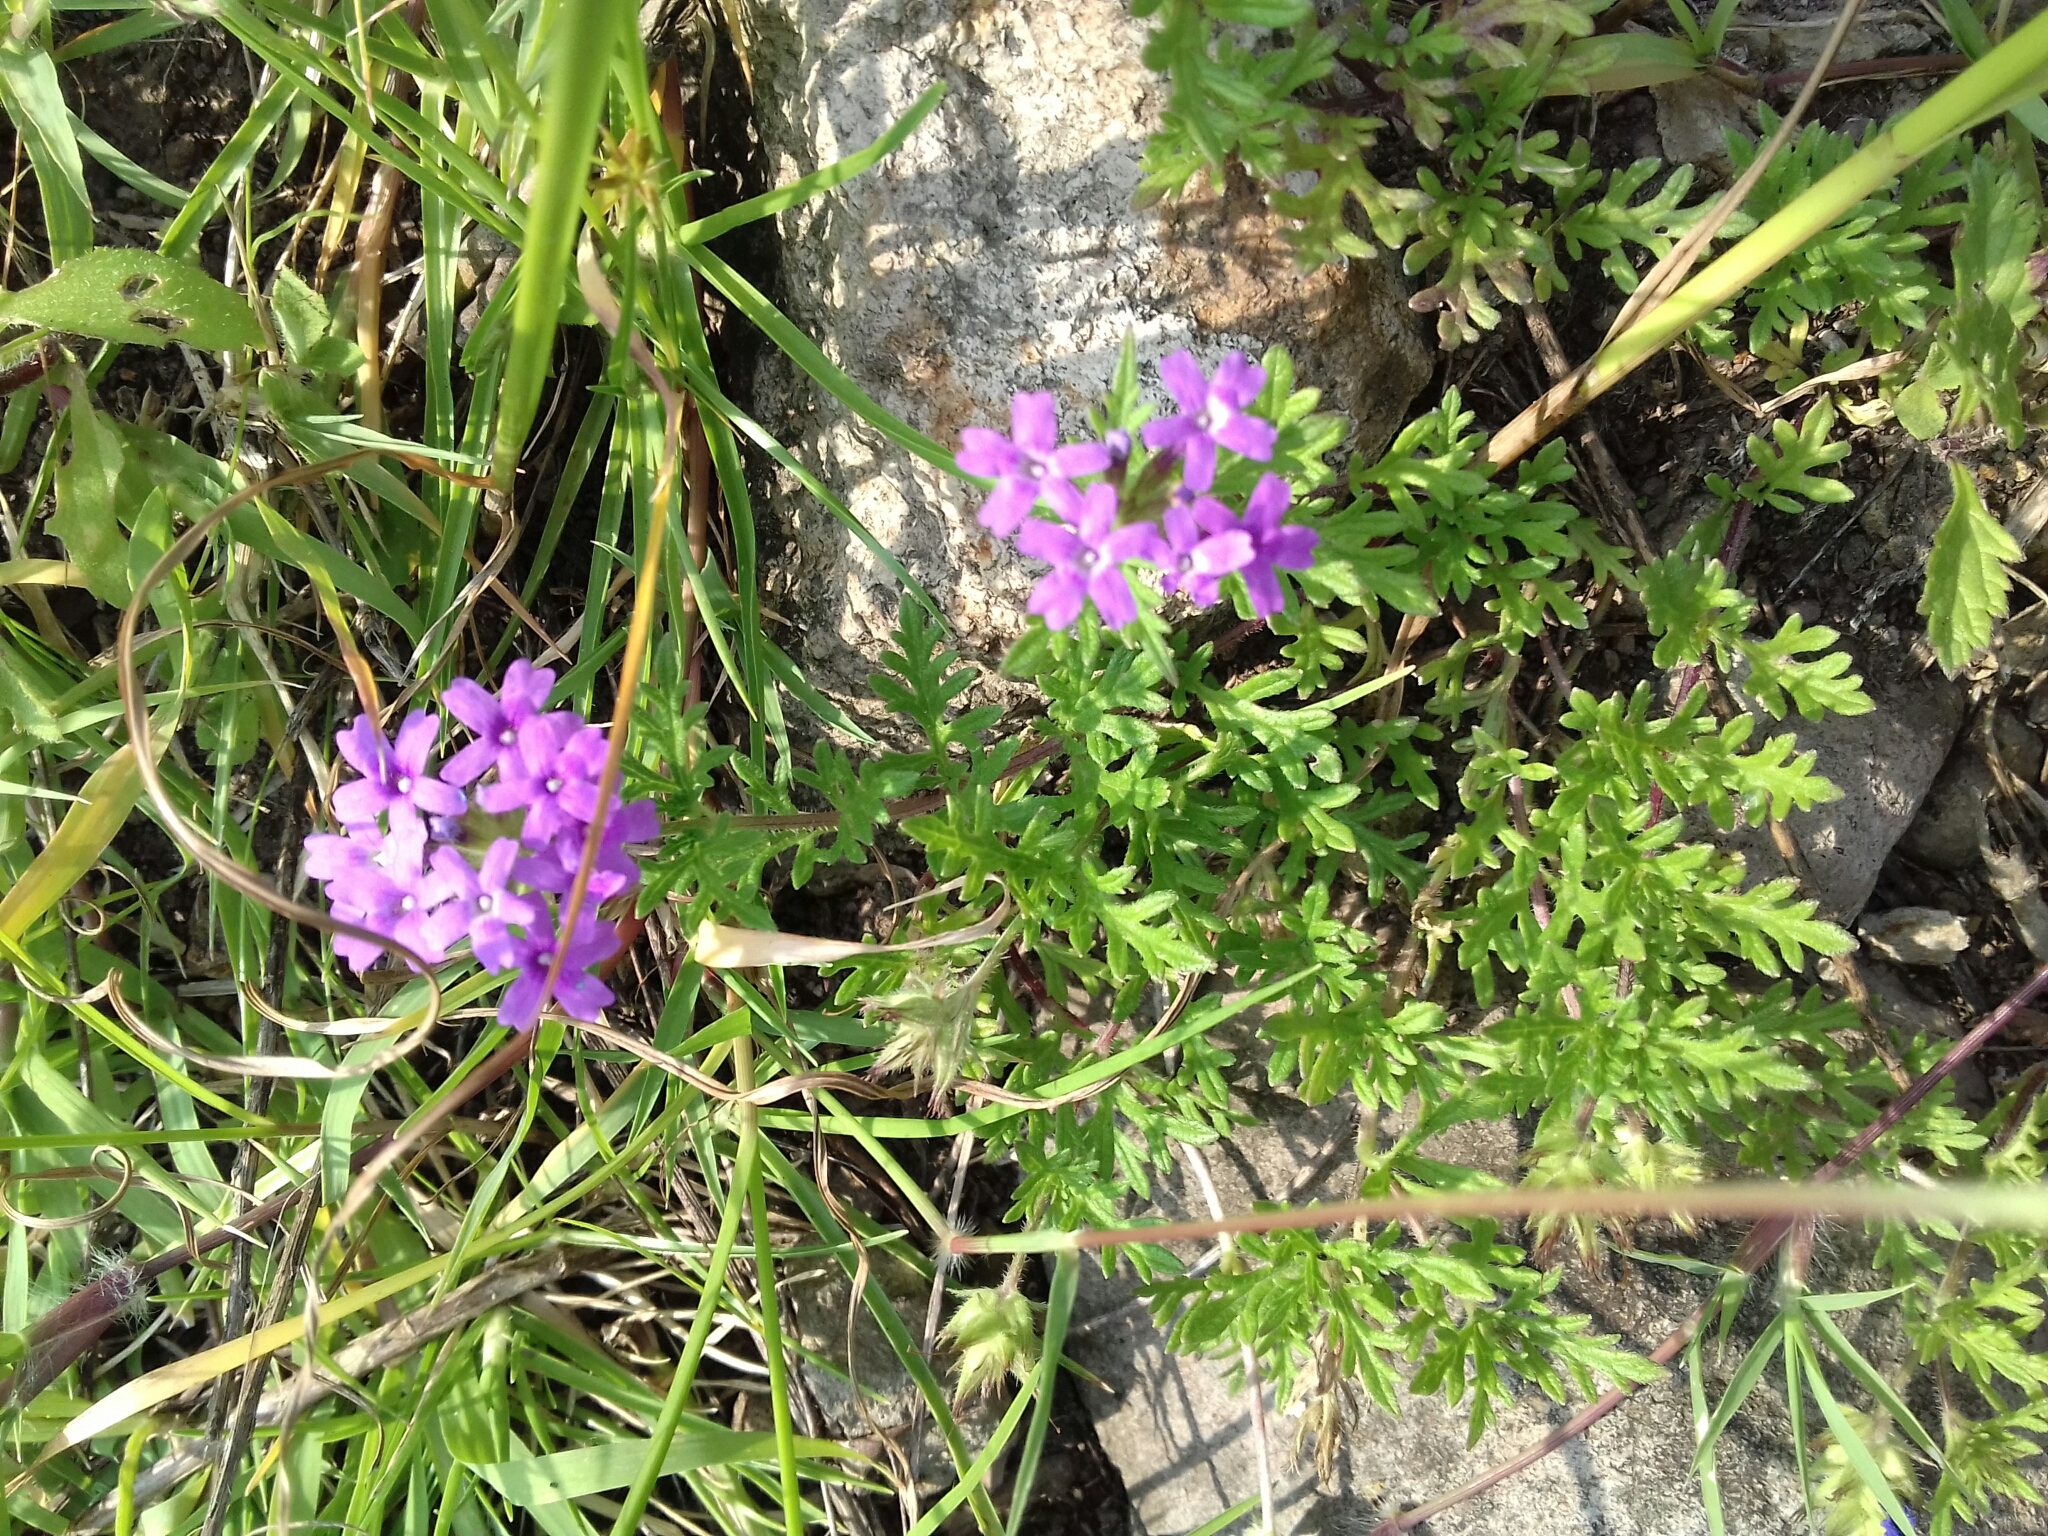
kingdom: Plantae
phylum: Tracheophyta
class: Magnoliopsida
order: Lamiales
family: Verbenaceae
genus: Verbena
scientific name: Verbena bipinnatifida
